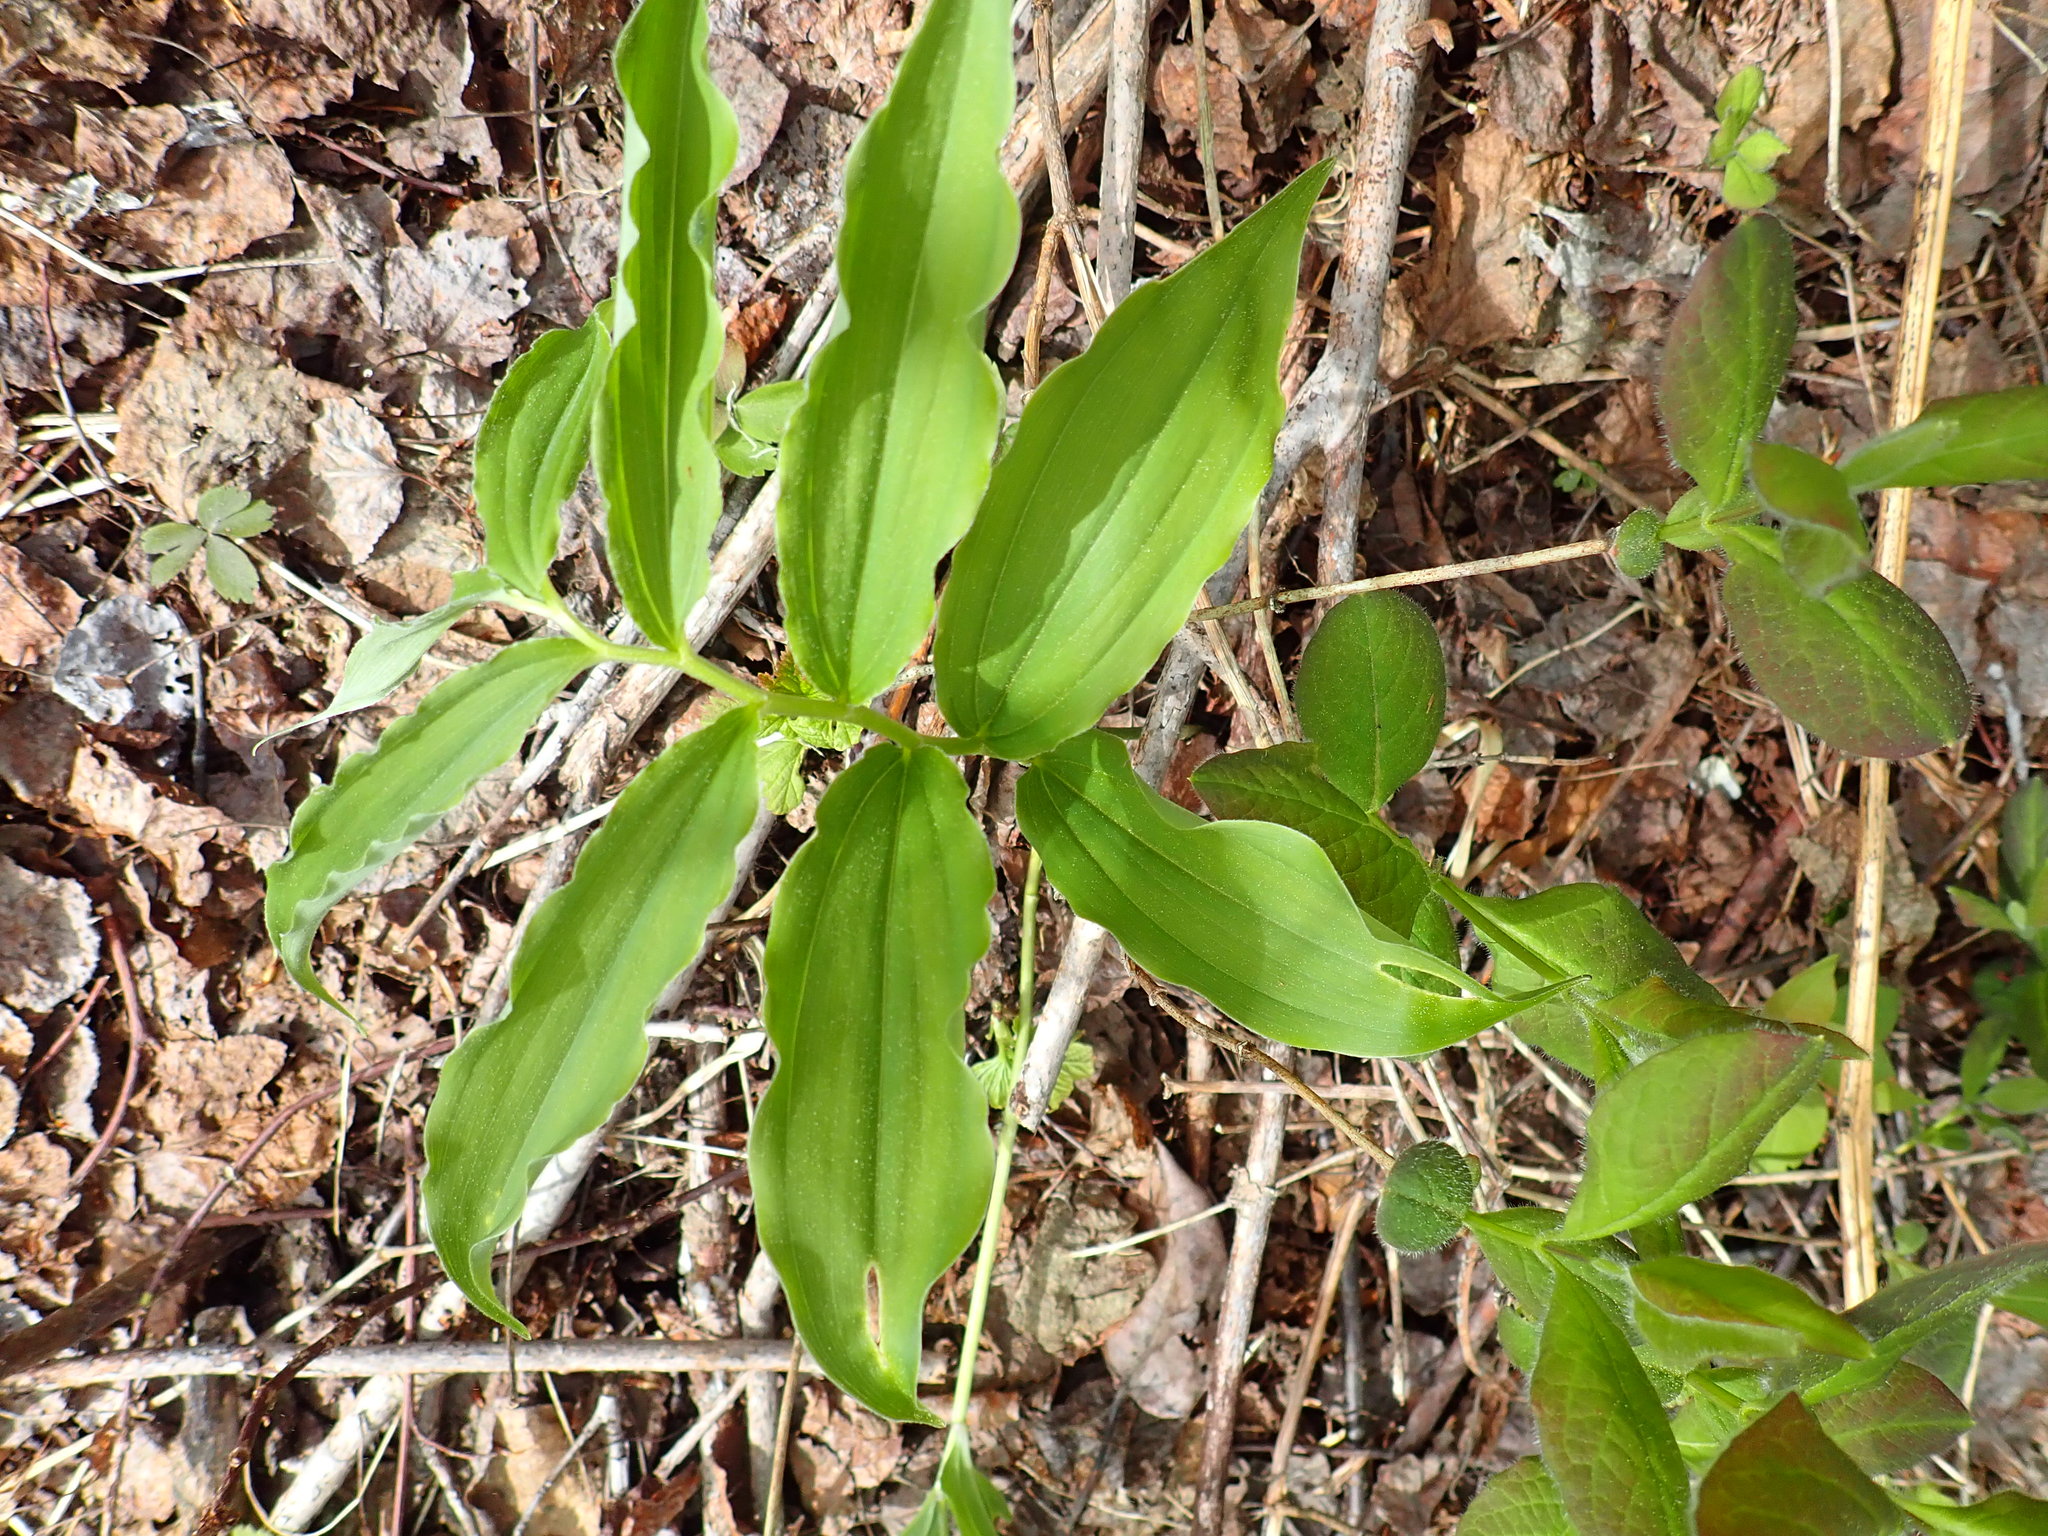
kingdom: Plantae
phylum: Tracheophyta
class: Liliopsida
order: Asparagales
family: Asparagaceae
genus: Maianthemum
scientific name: Maianthemum racemosum
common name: False spikenard
